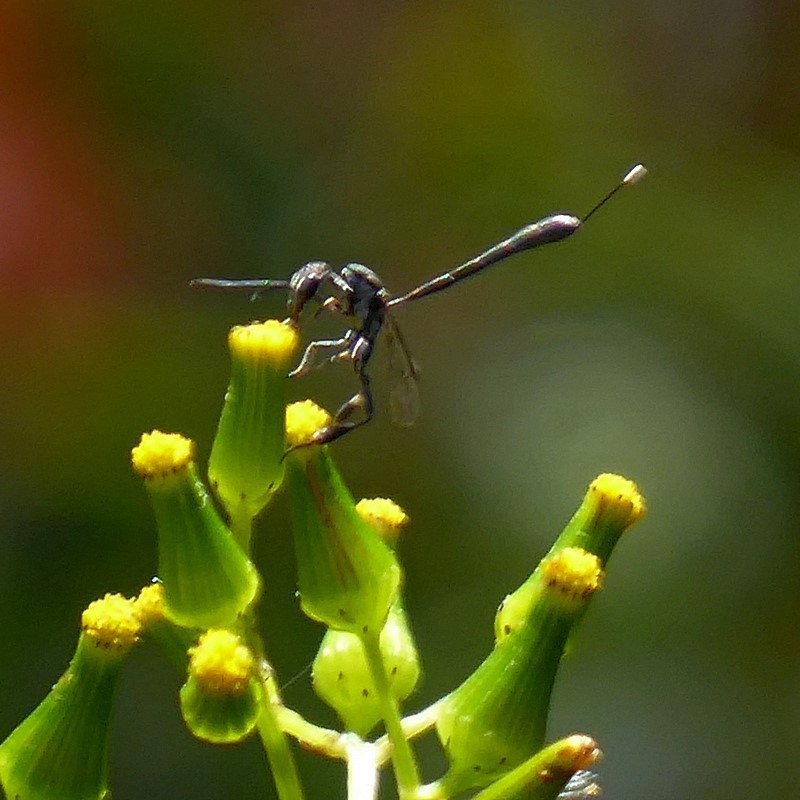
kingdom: Animalia
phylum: Arthropoda
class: Insecta
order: Hymenoptera
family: Gasteruptiidae
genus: Gasteruption
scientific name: Gasteruption forticorne
